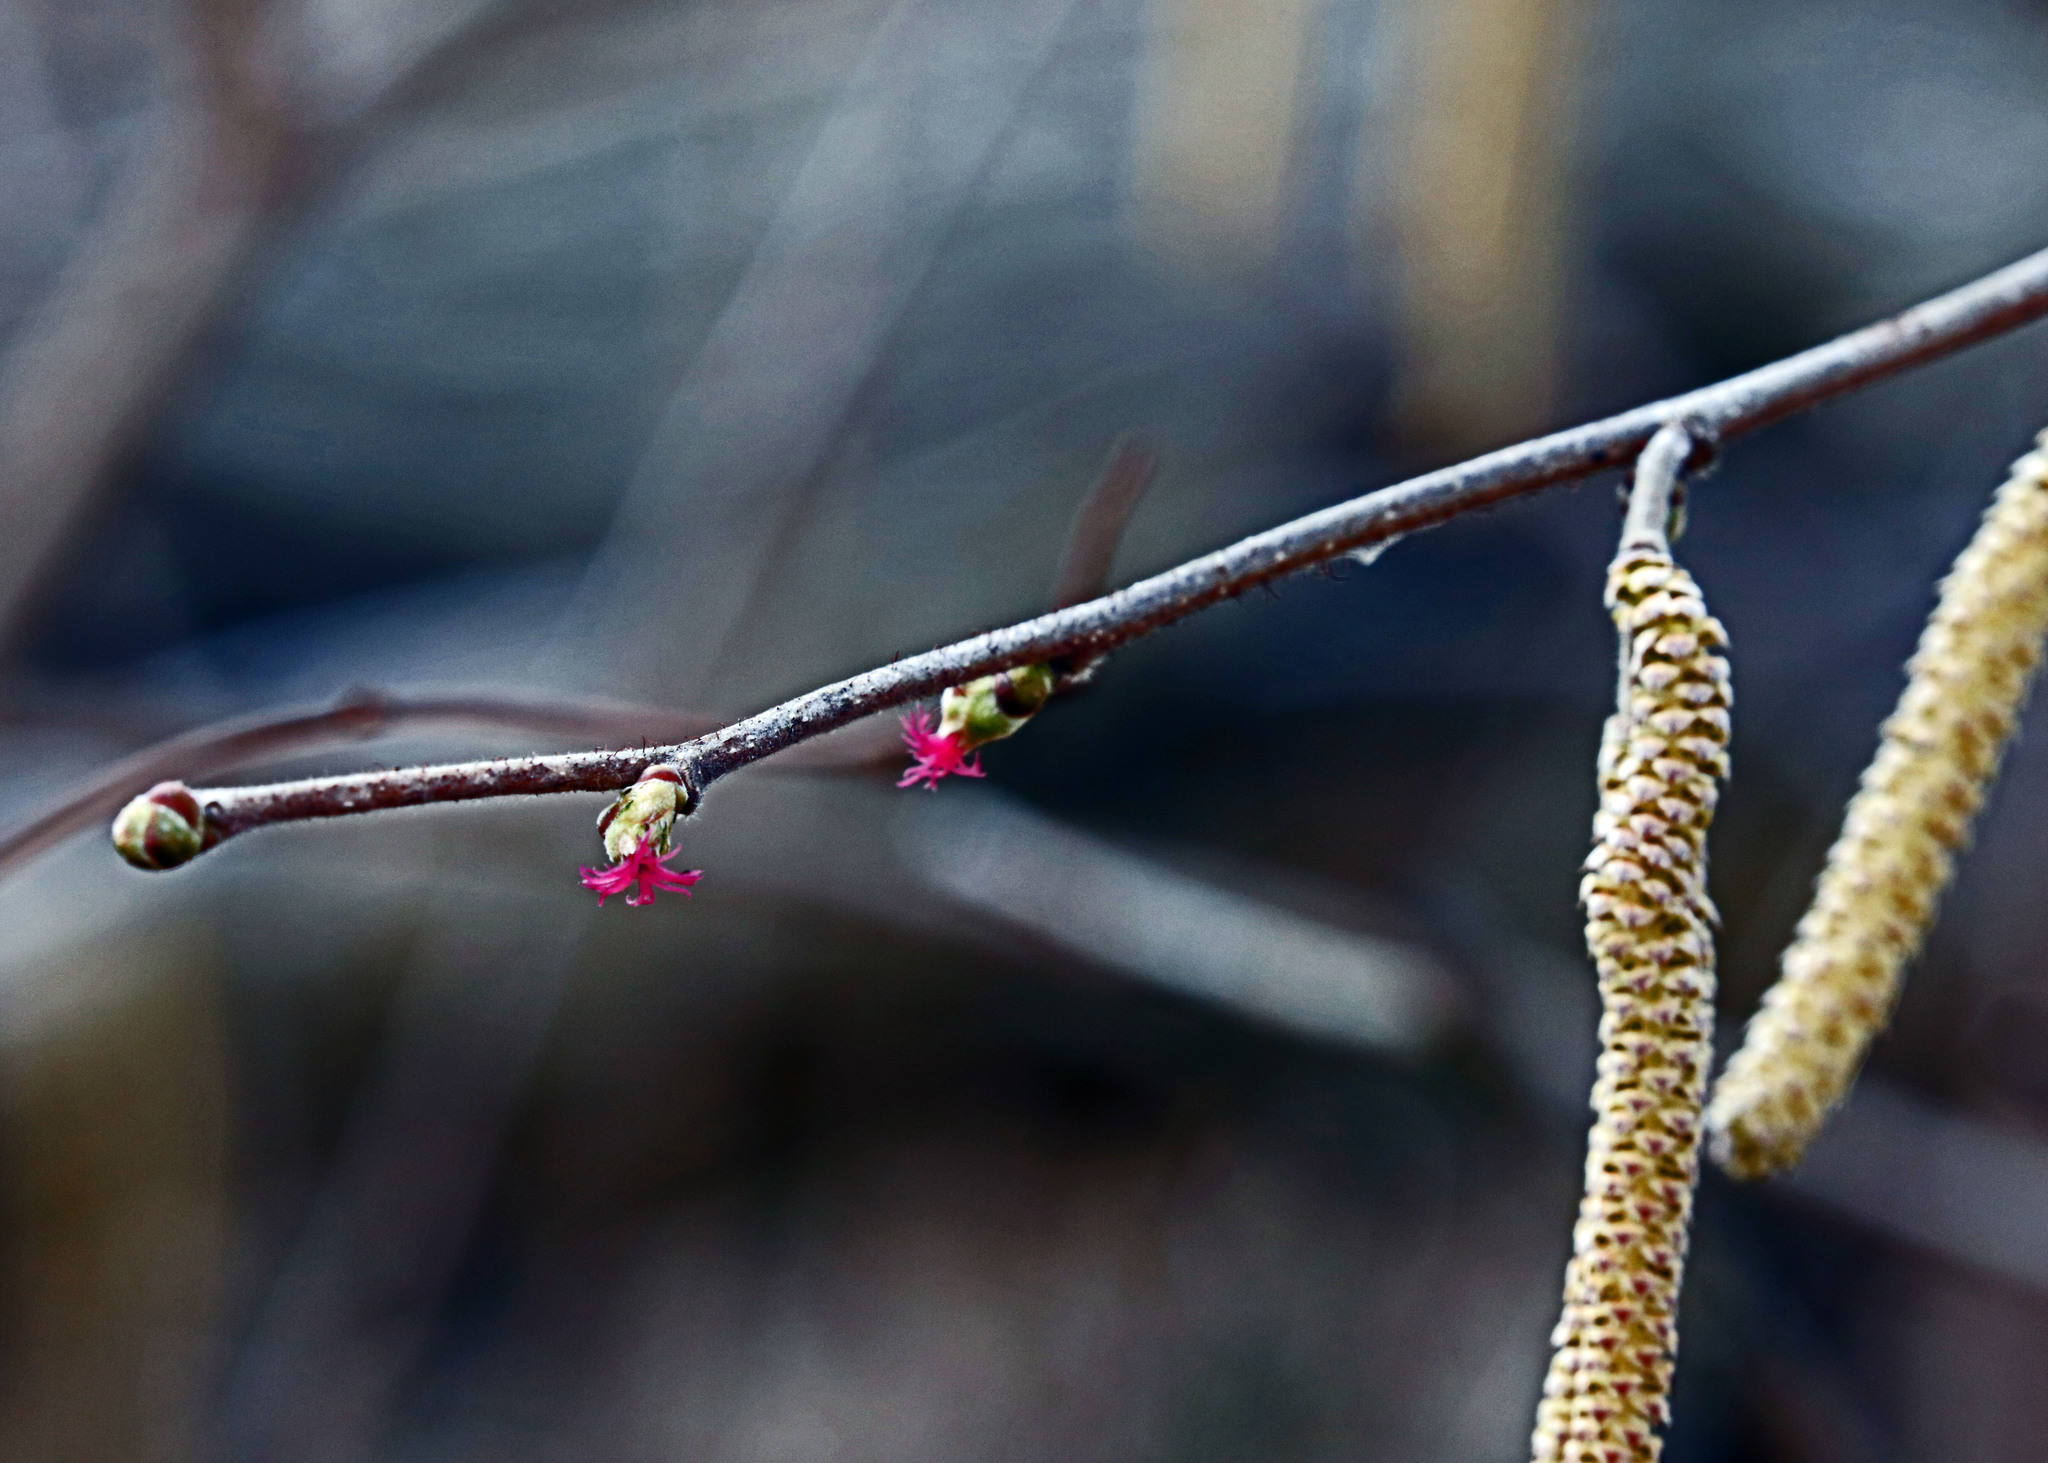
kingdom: Plantae
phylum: Tracheophyta
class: Magnoliopsida
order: Fagales
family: Betulaceae
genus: Corylus
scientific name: Corylus americana
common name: American hazel
